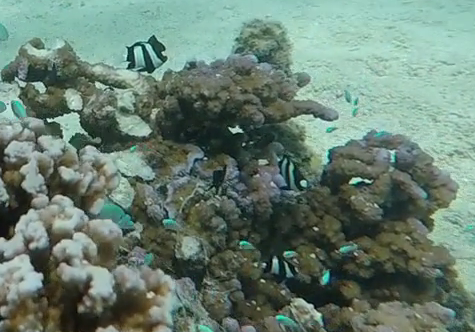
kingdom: Animalia
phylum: Chordata
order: Perciformes
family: Pomacentridae
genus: Dascyllus
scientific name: Dascyllus aruanus
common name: Humbug dascyllus
